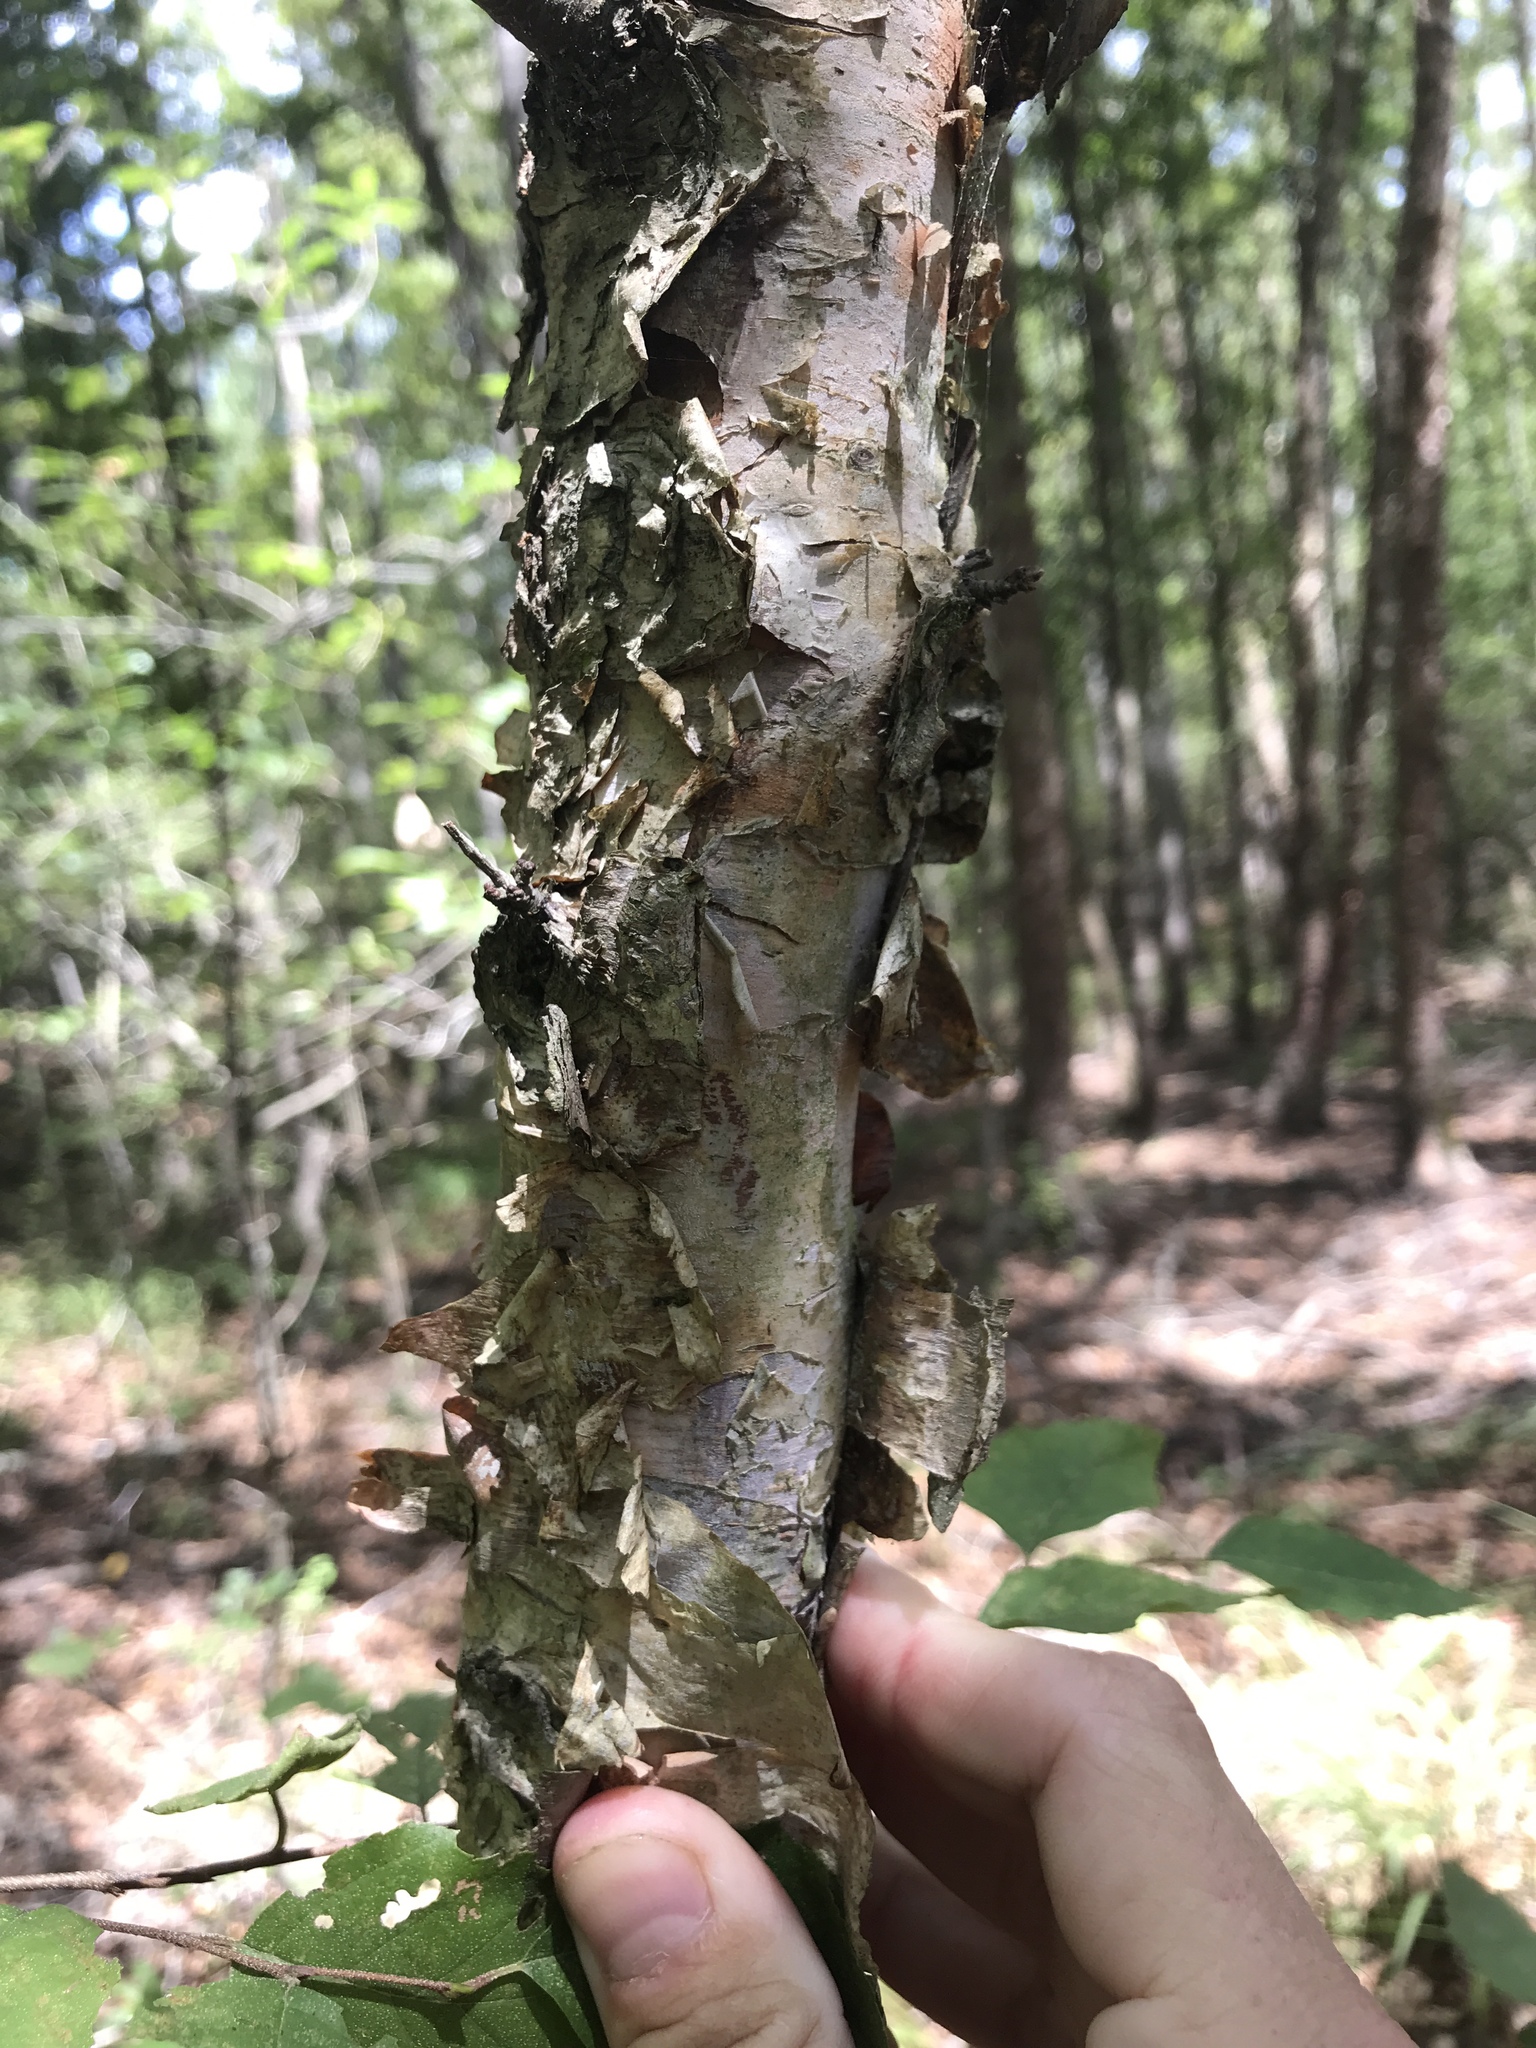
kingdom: Plantae
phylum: Tracheophyta
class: Magnoliopsida
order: Fagales
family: Betulaceae
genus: Betula
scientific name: Betula nigra
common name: Black birch
